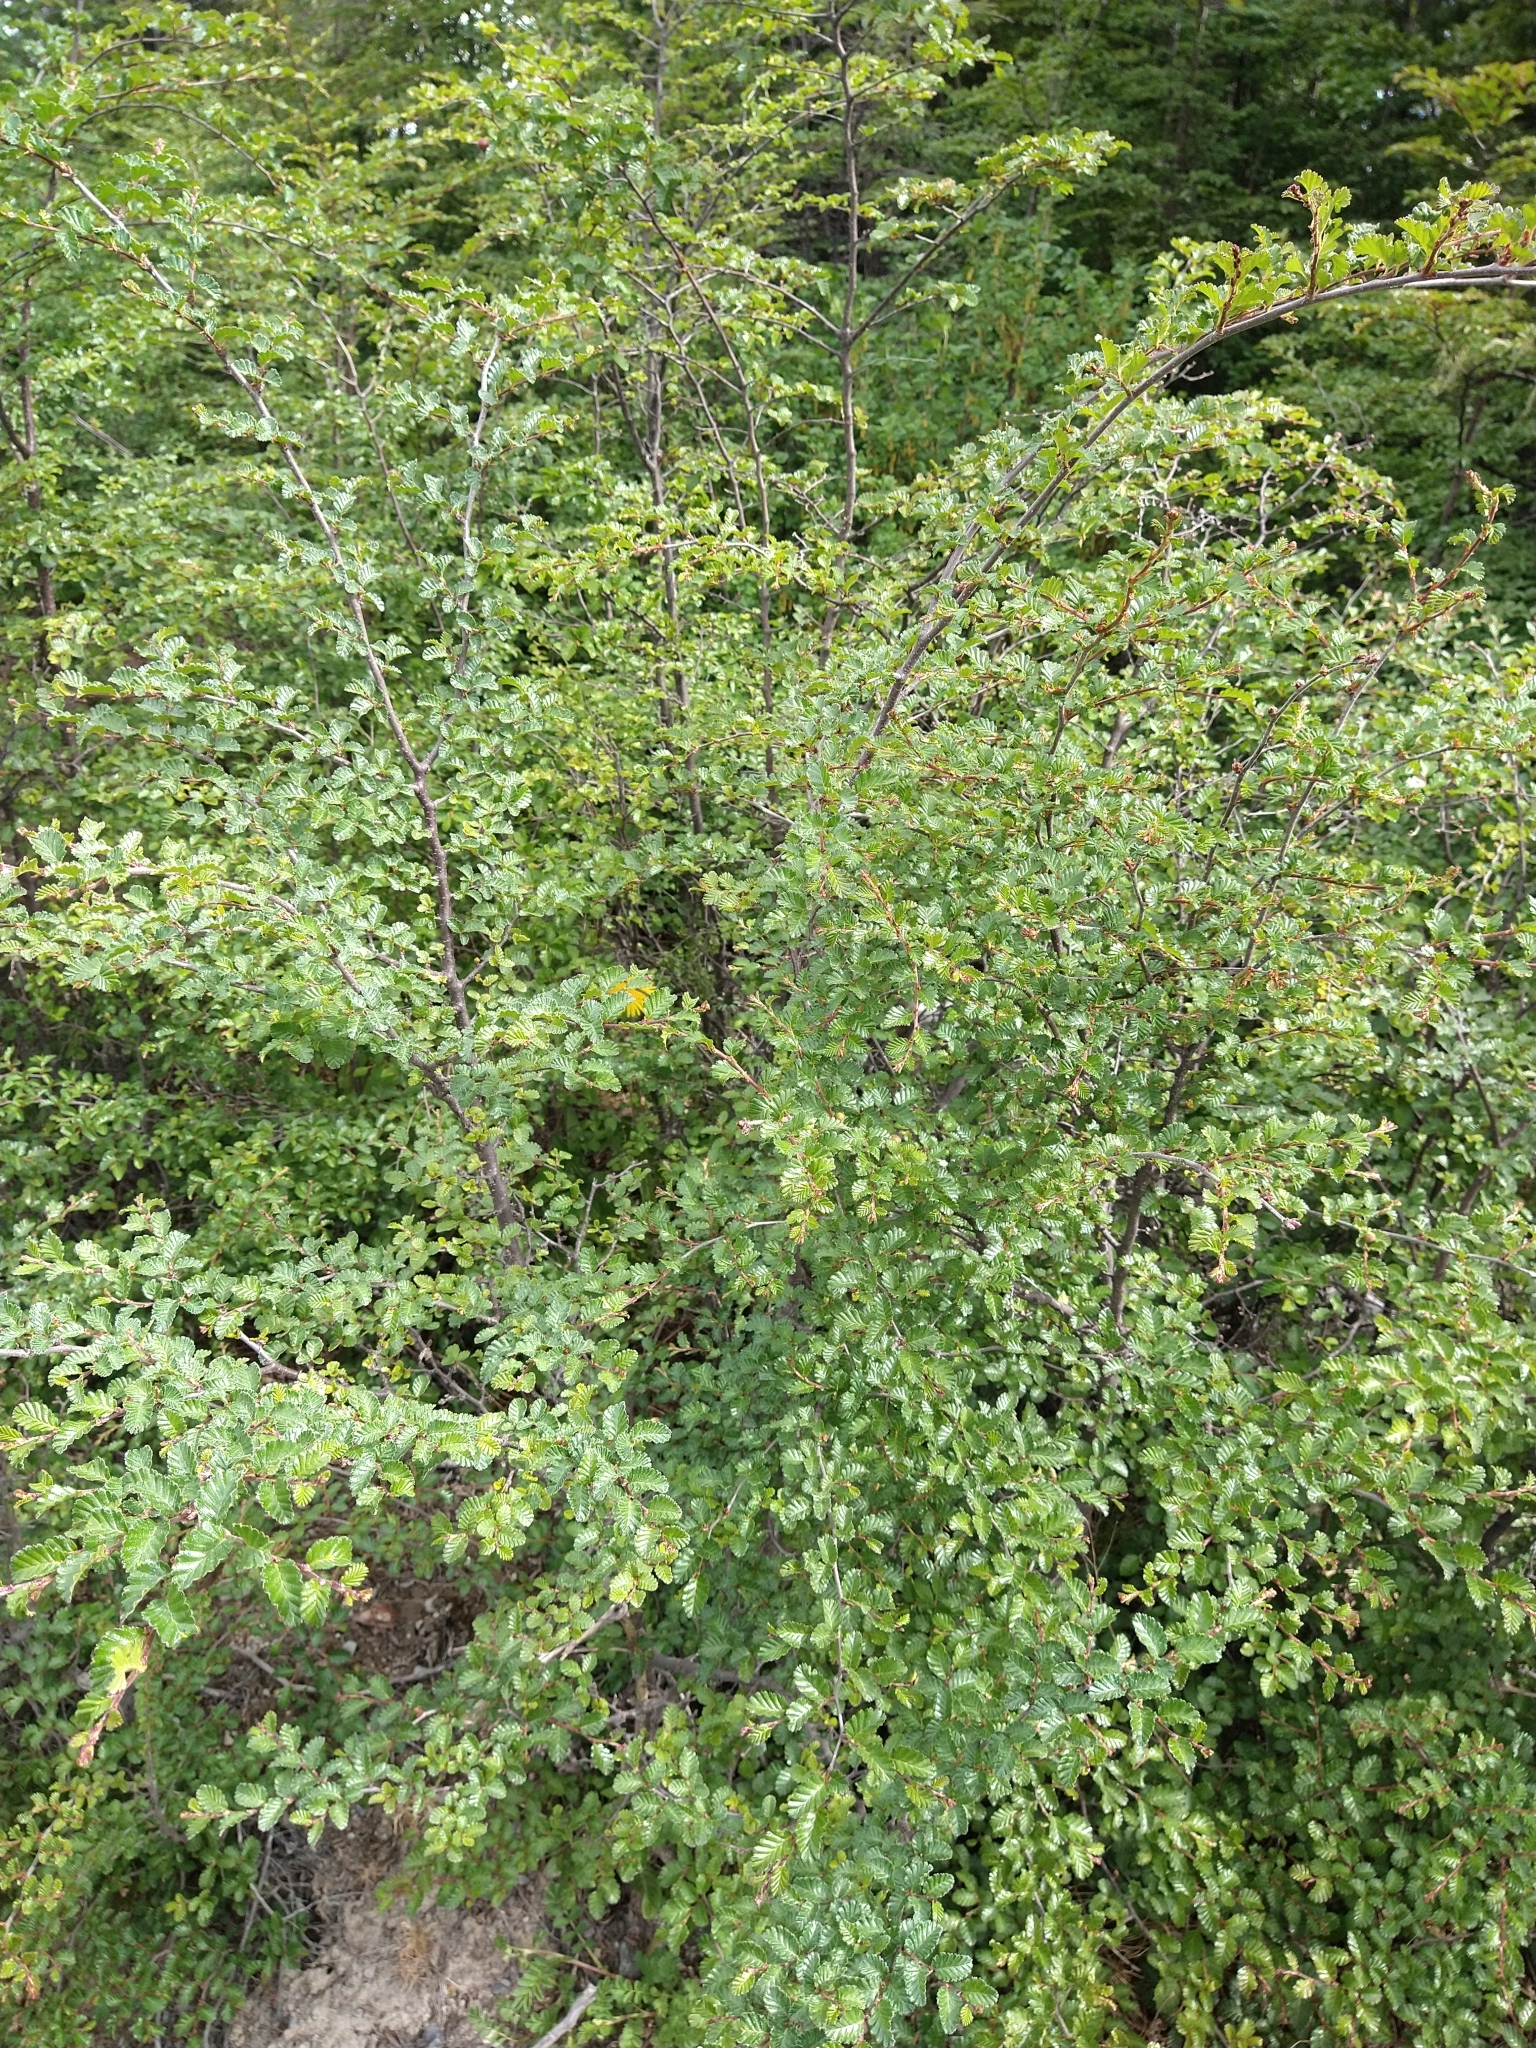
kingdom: Plantae
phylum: Tracheophyta
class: Magnoliopsida
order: Fagales
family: Nothofagaceae
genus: Nothofagus
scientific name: Nothofagus pumilio
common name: Lenga beech
